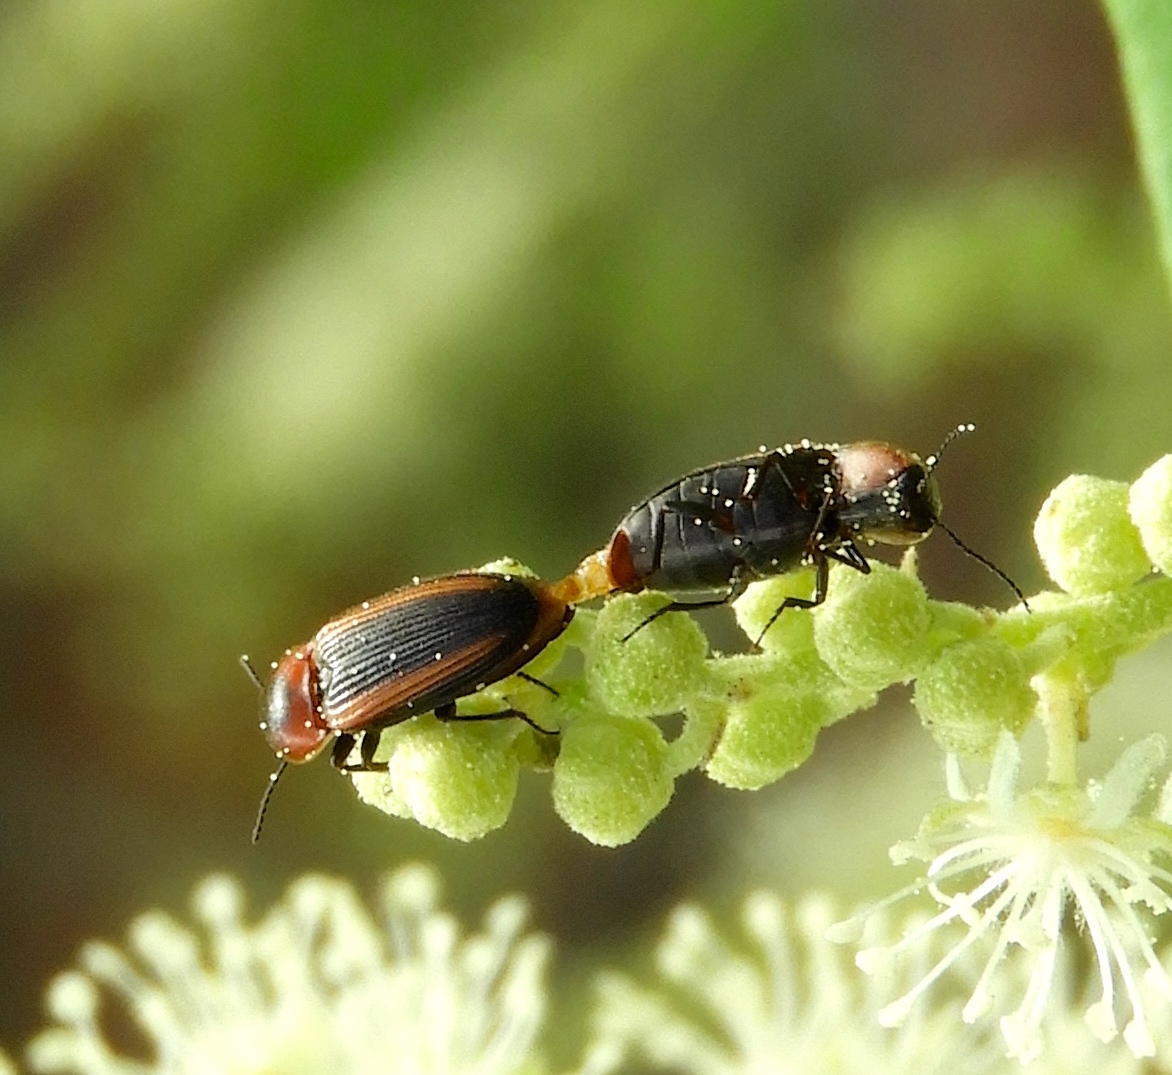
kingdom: Animalia
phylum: Arthropoda
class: Insecta
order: Coleoptera
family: Elateridae
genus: Cardiophorus
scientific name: Cardiophorus aptopoides
